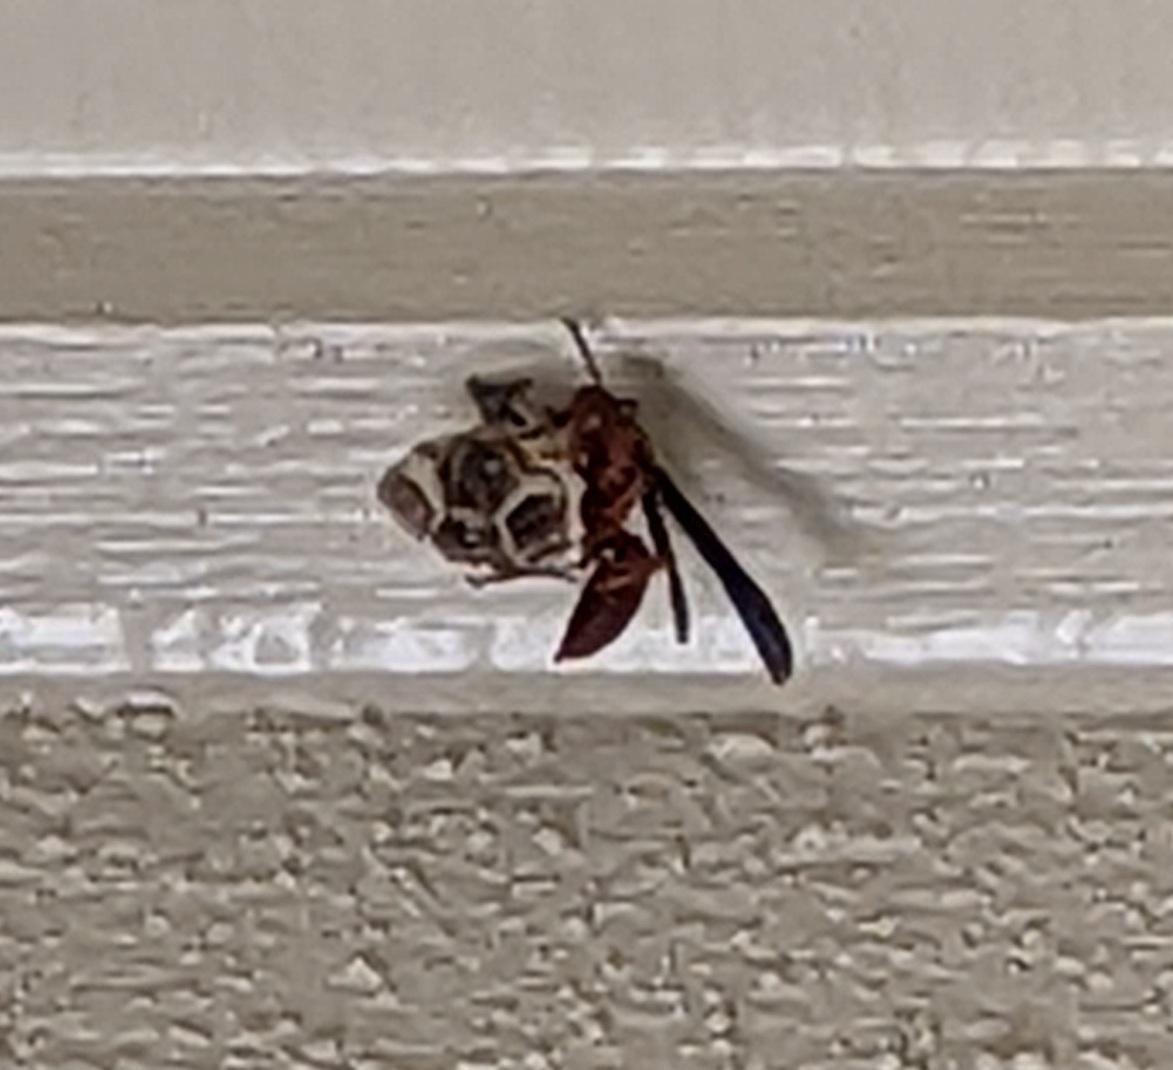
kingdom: Animalia
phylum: Arthropoda
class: Insecta
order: Hymenoptera
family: Vespidae
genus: Fuscopolistes
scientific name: Fuscopolistes
